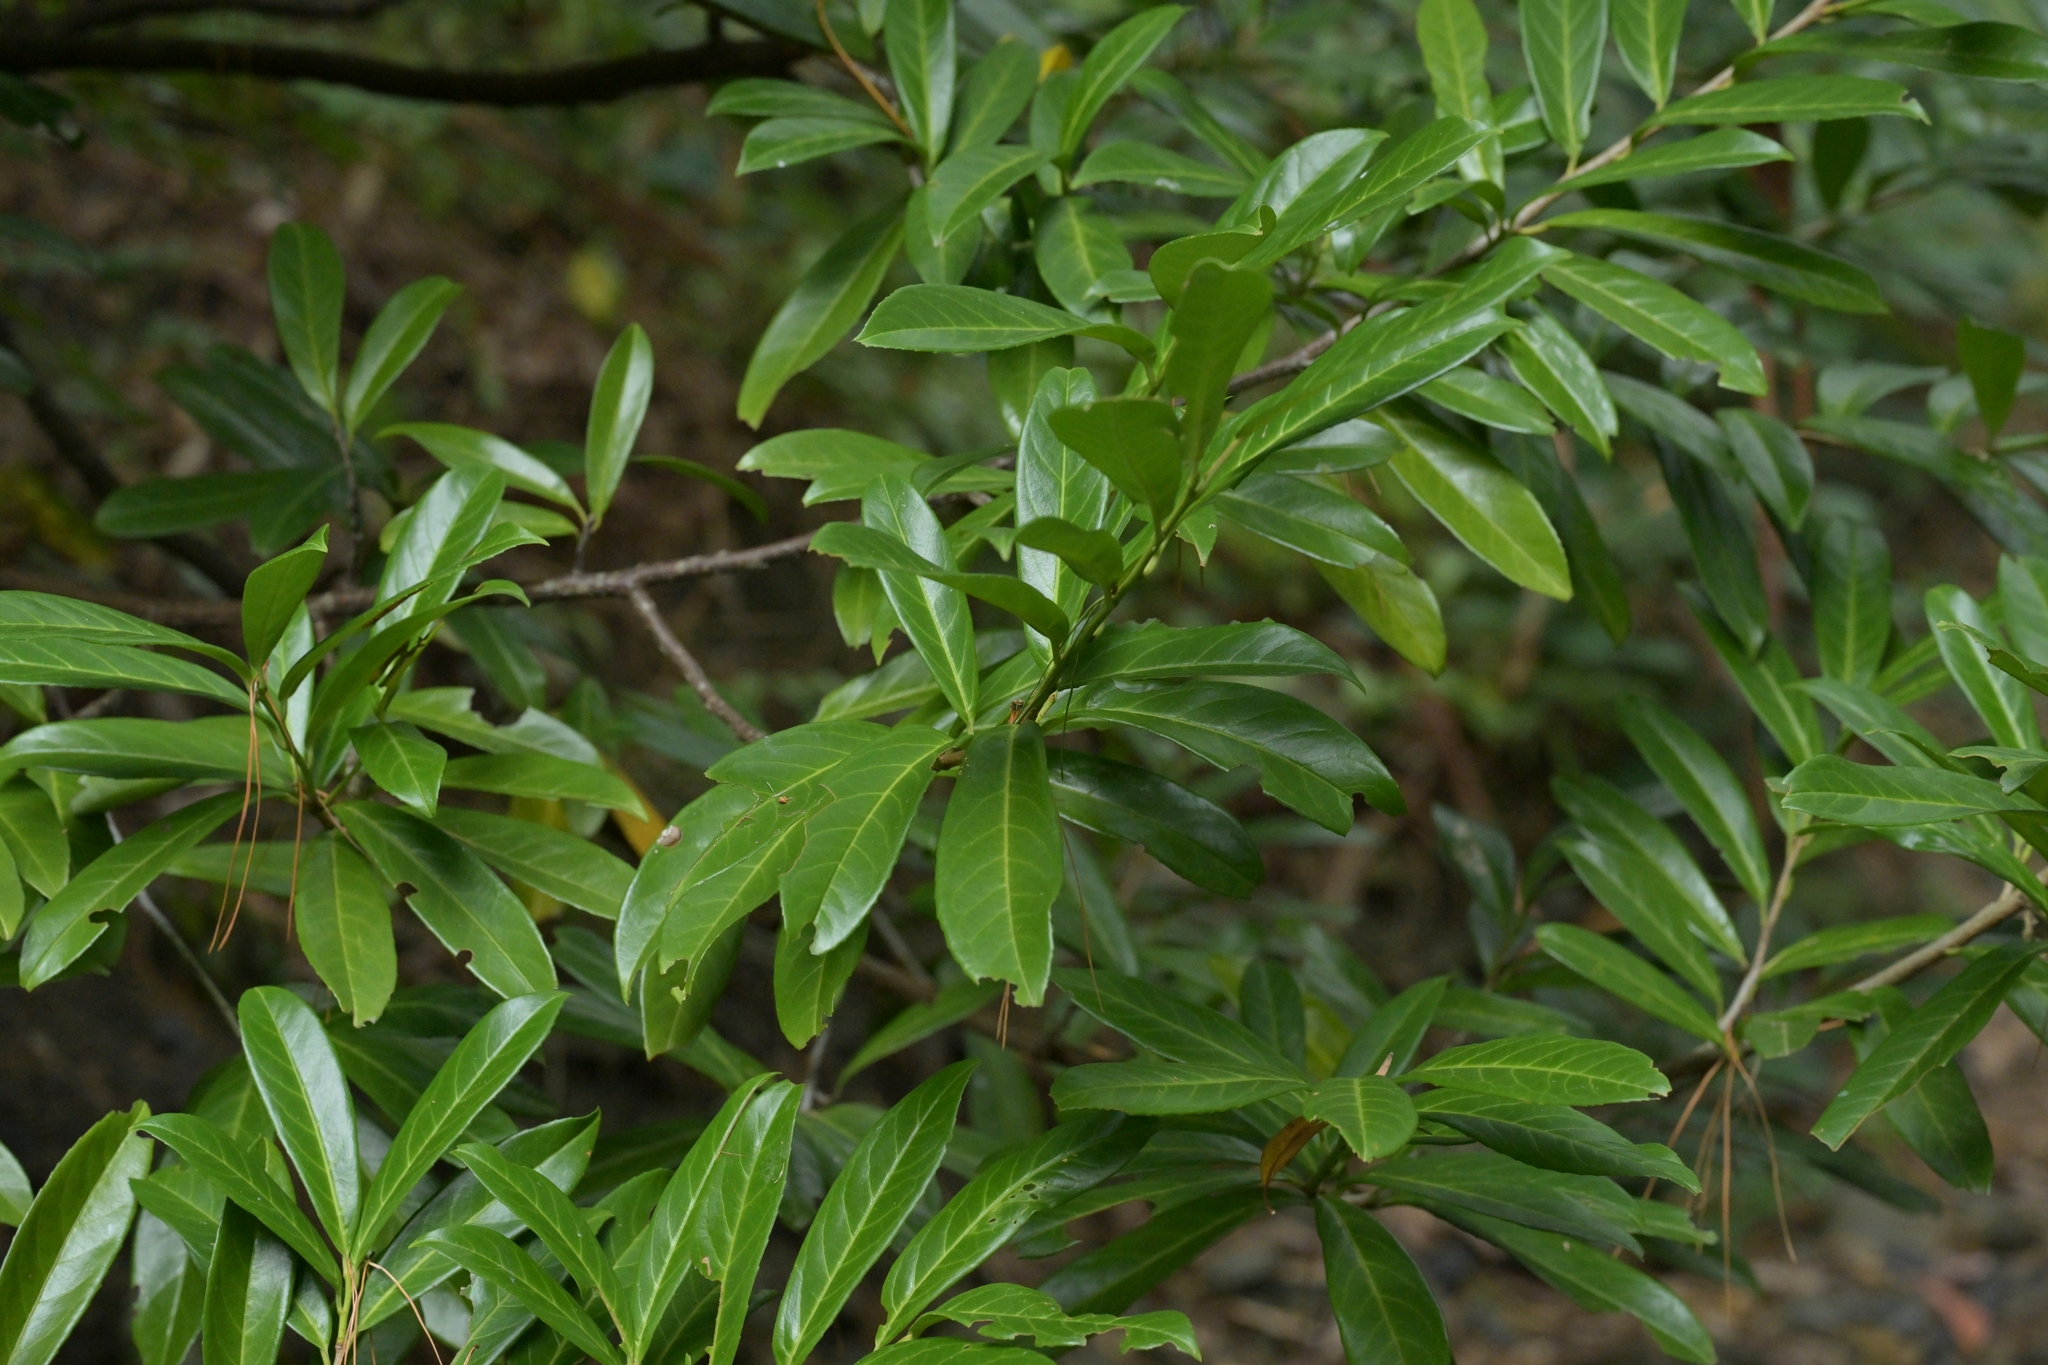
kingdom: Plantae
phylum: Tracheophyta
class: Magnoliopsida
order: Rosales
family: Rosaceae
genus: Prunus
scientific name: Prunus laurocerasus
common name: Cherry laurel
